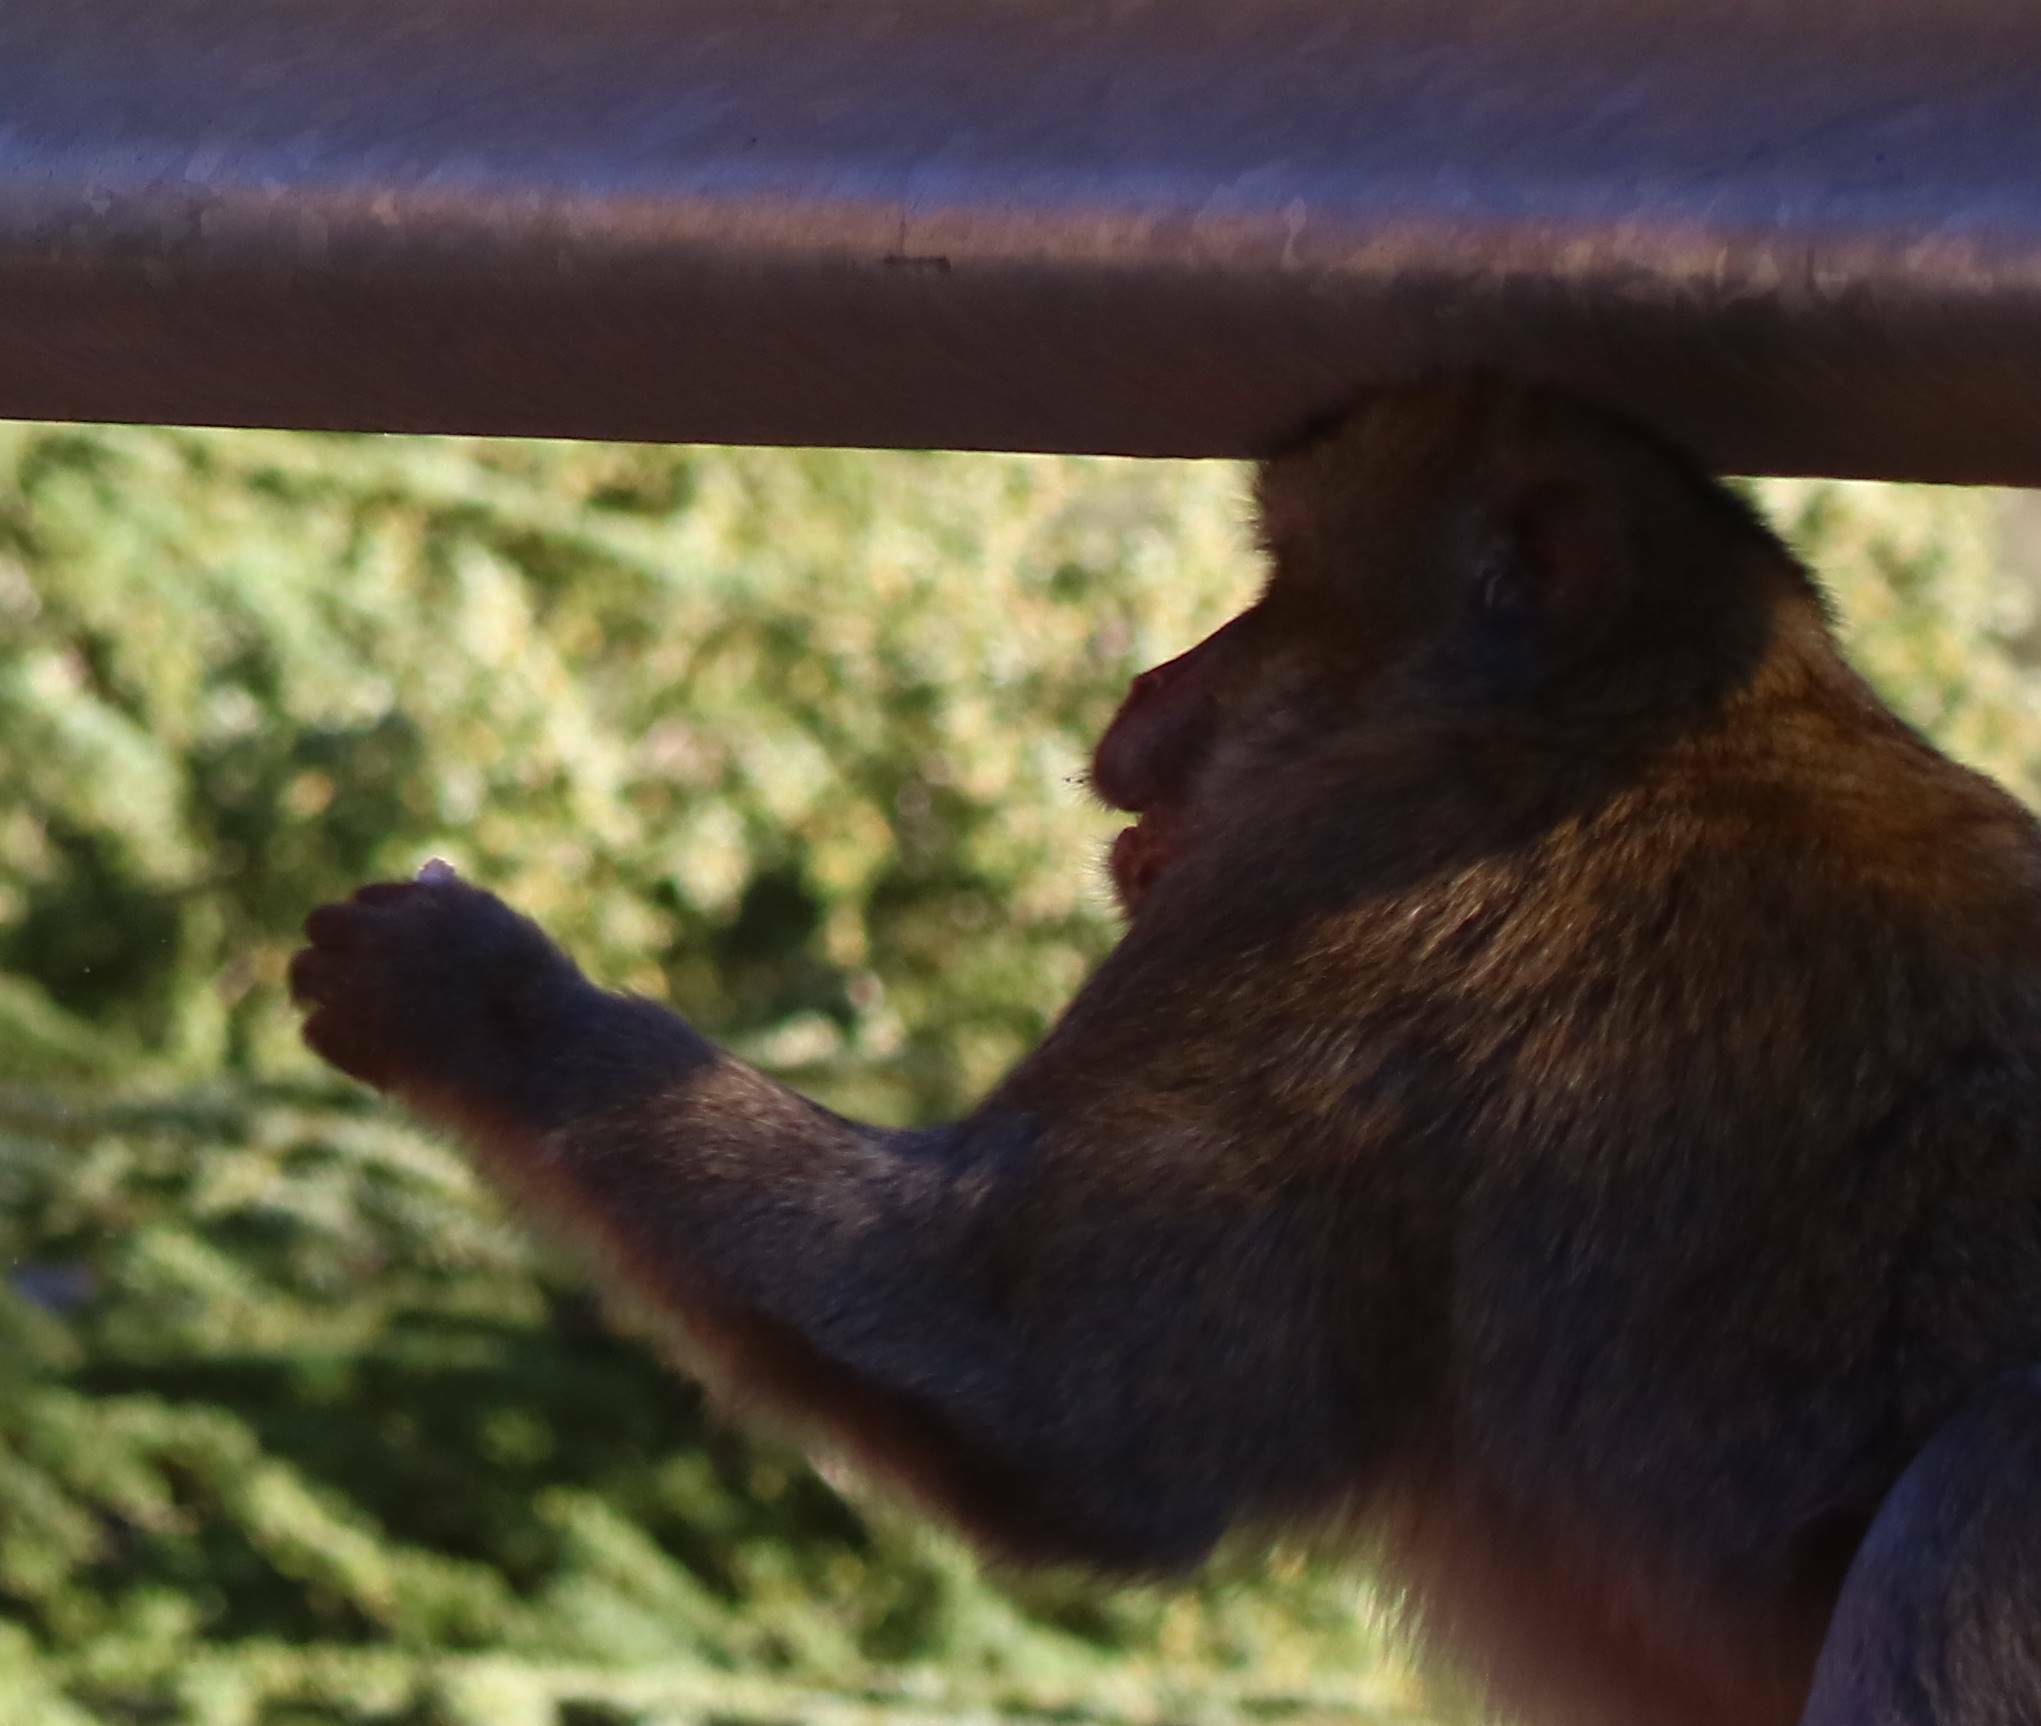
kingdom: Animalia
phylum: Chordata
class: Mammalia
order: Primates
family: Cercopithecidae
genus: Macaca
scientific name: Macaca sylvanus
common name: Barbary macaque
